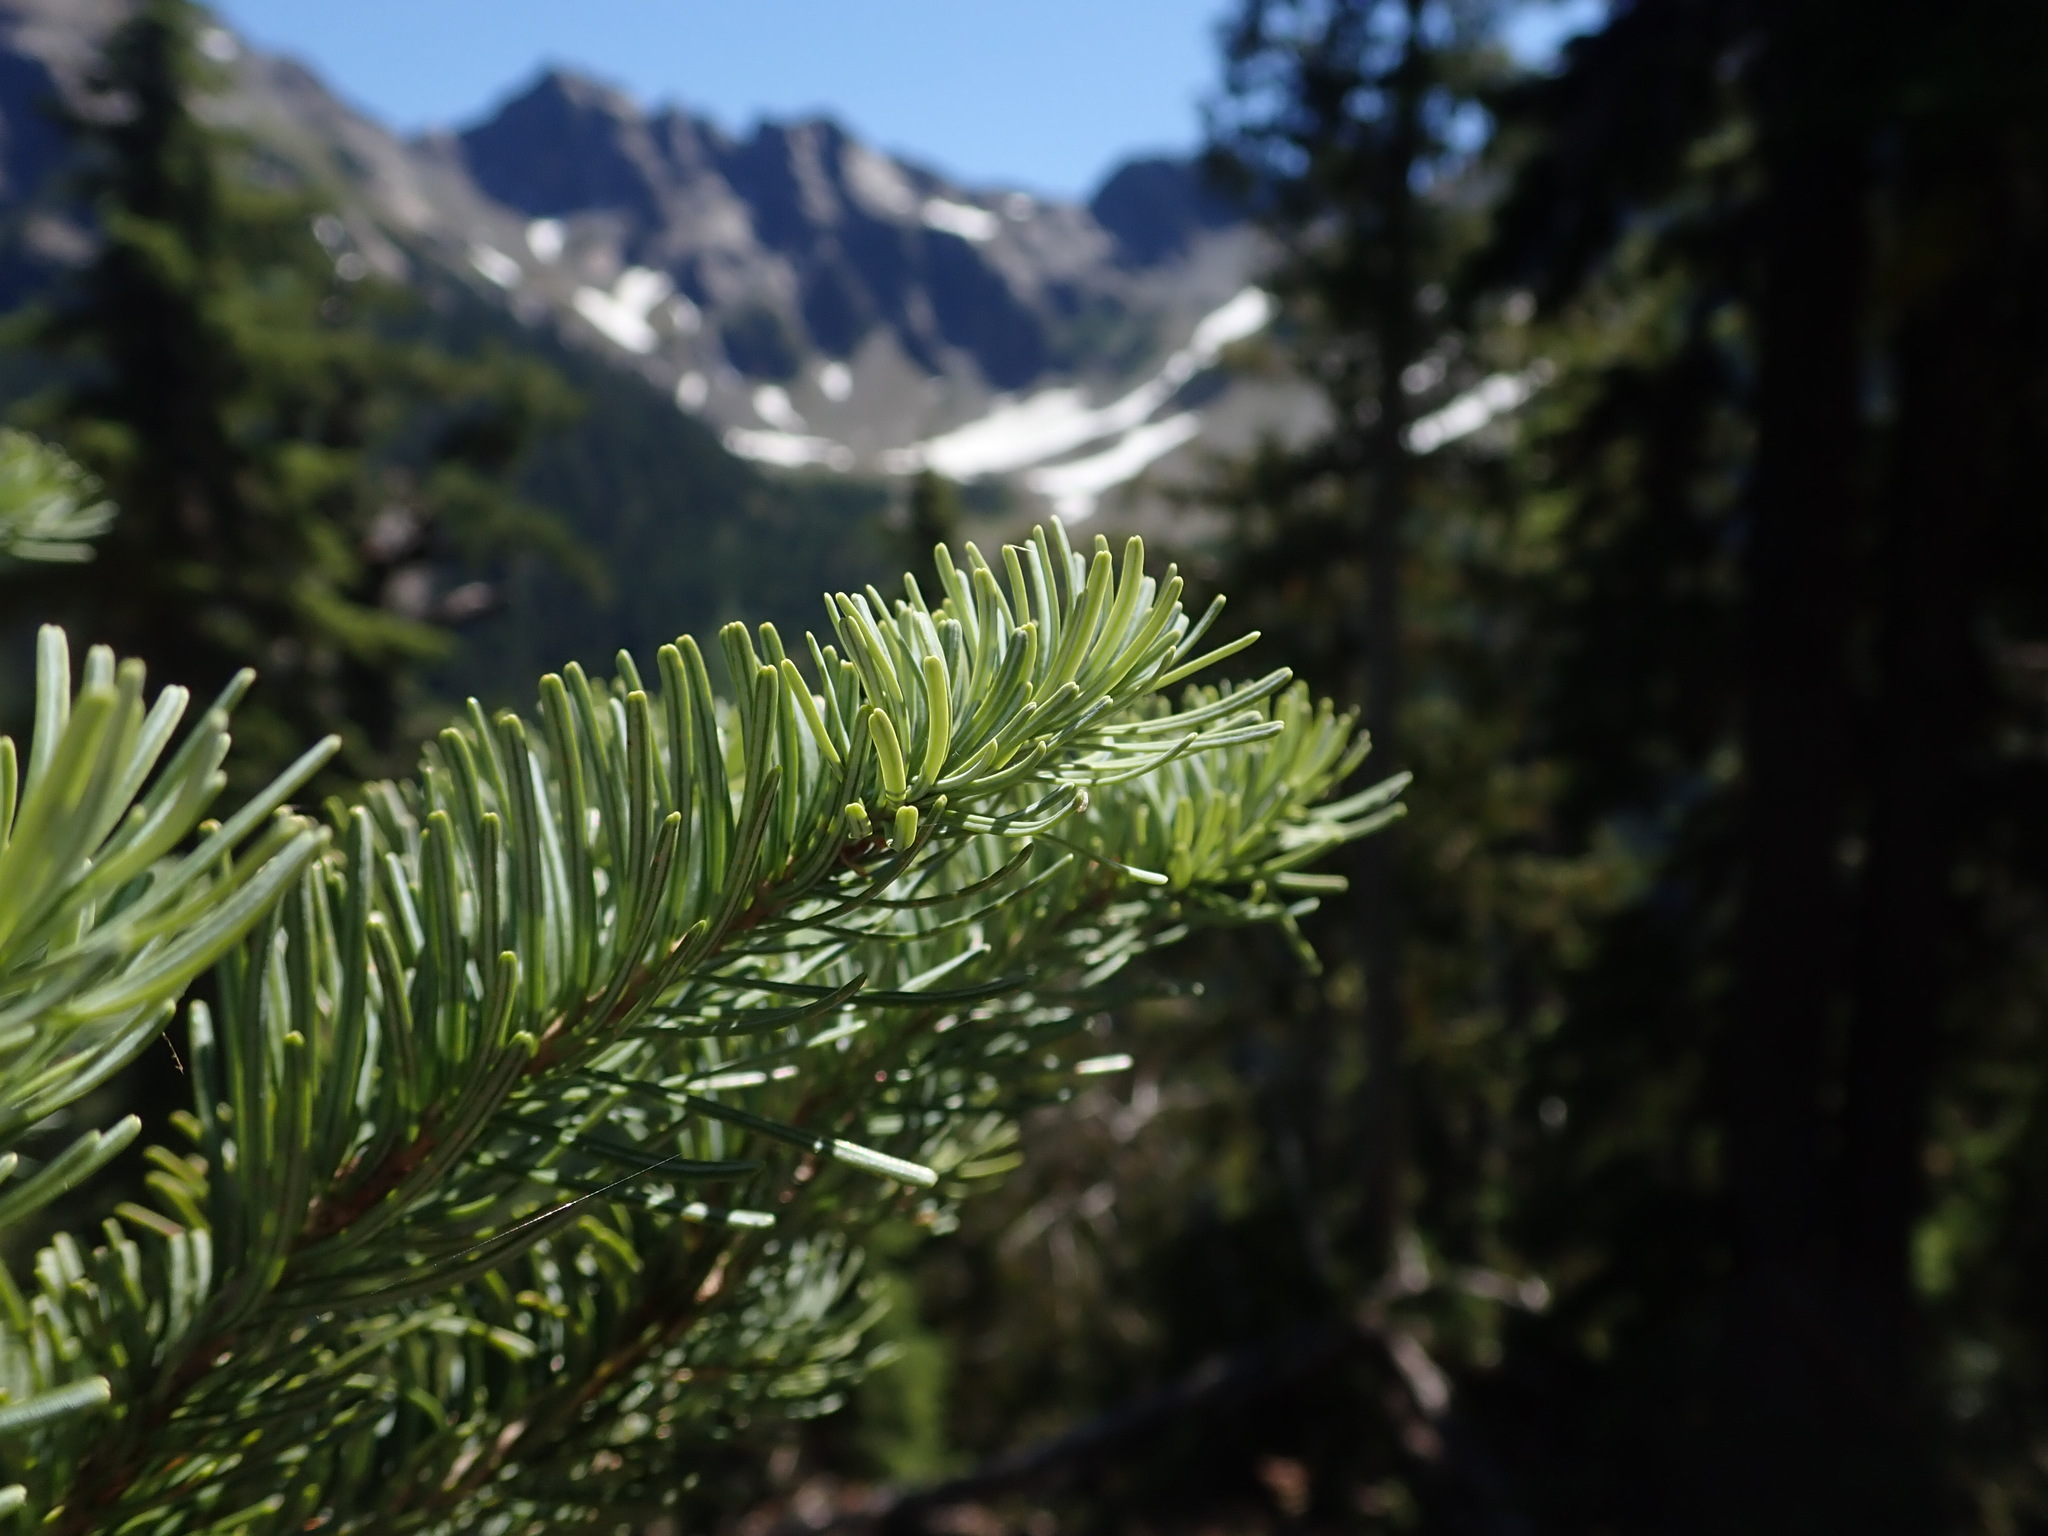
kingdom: Plantae
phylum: Tracheophyta
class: Pinopsida
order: Pinales
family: Pinaceae
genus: Abies
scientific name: Abies lasiocarpa
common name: Subalpine fir
